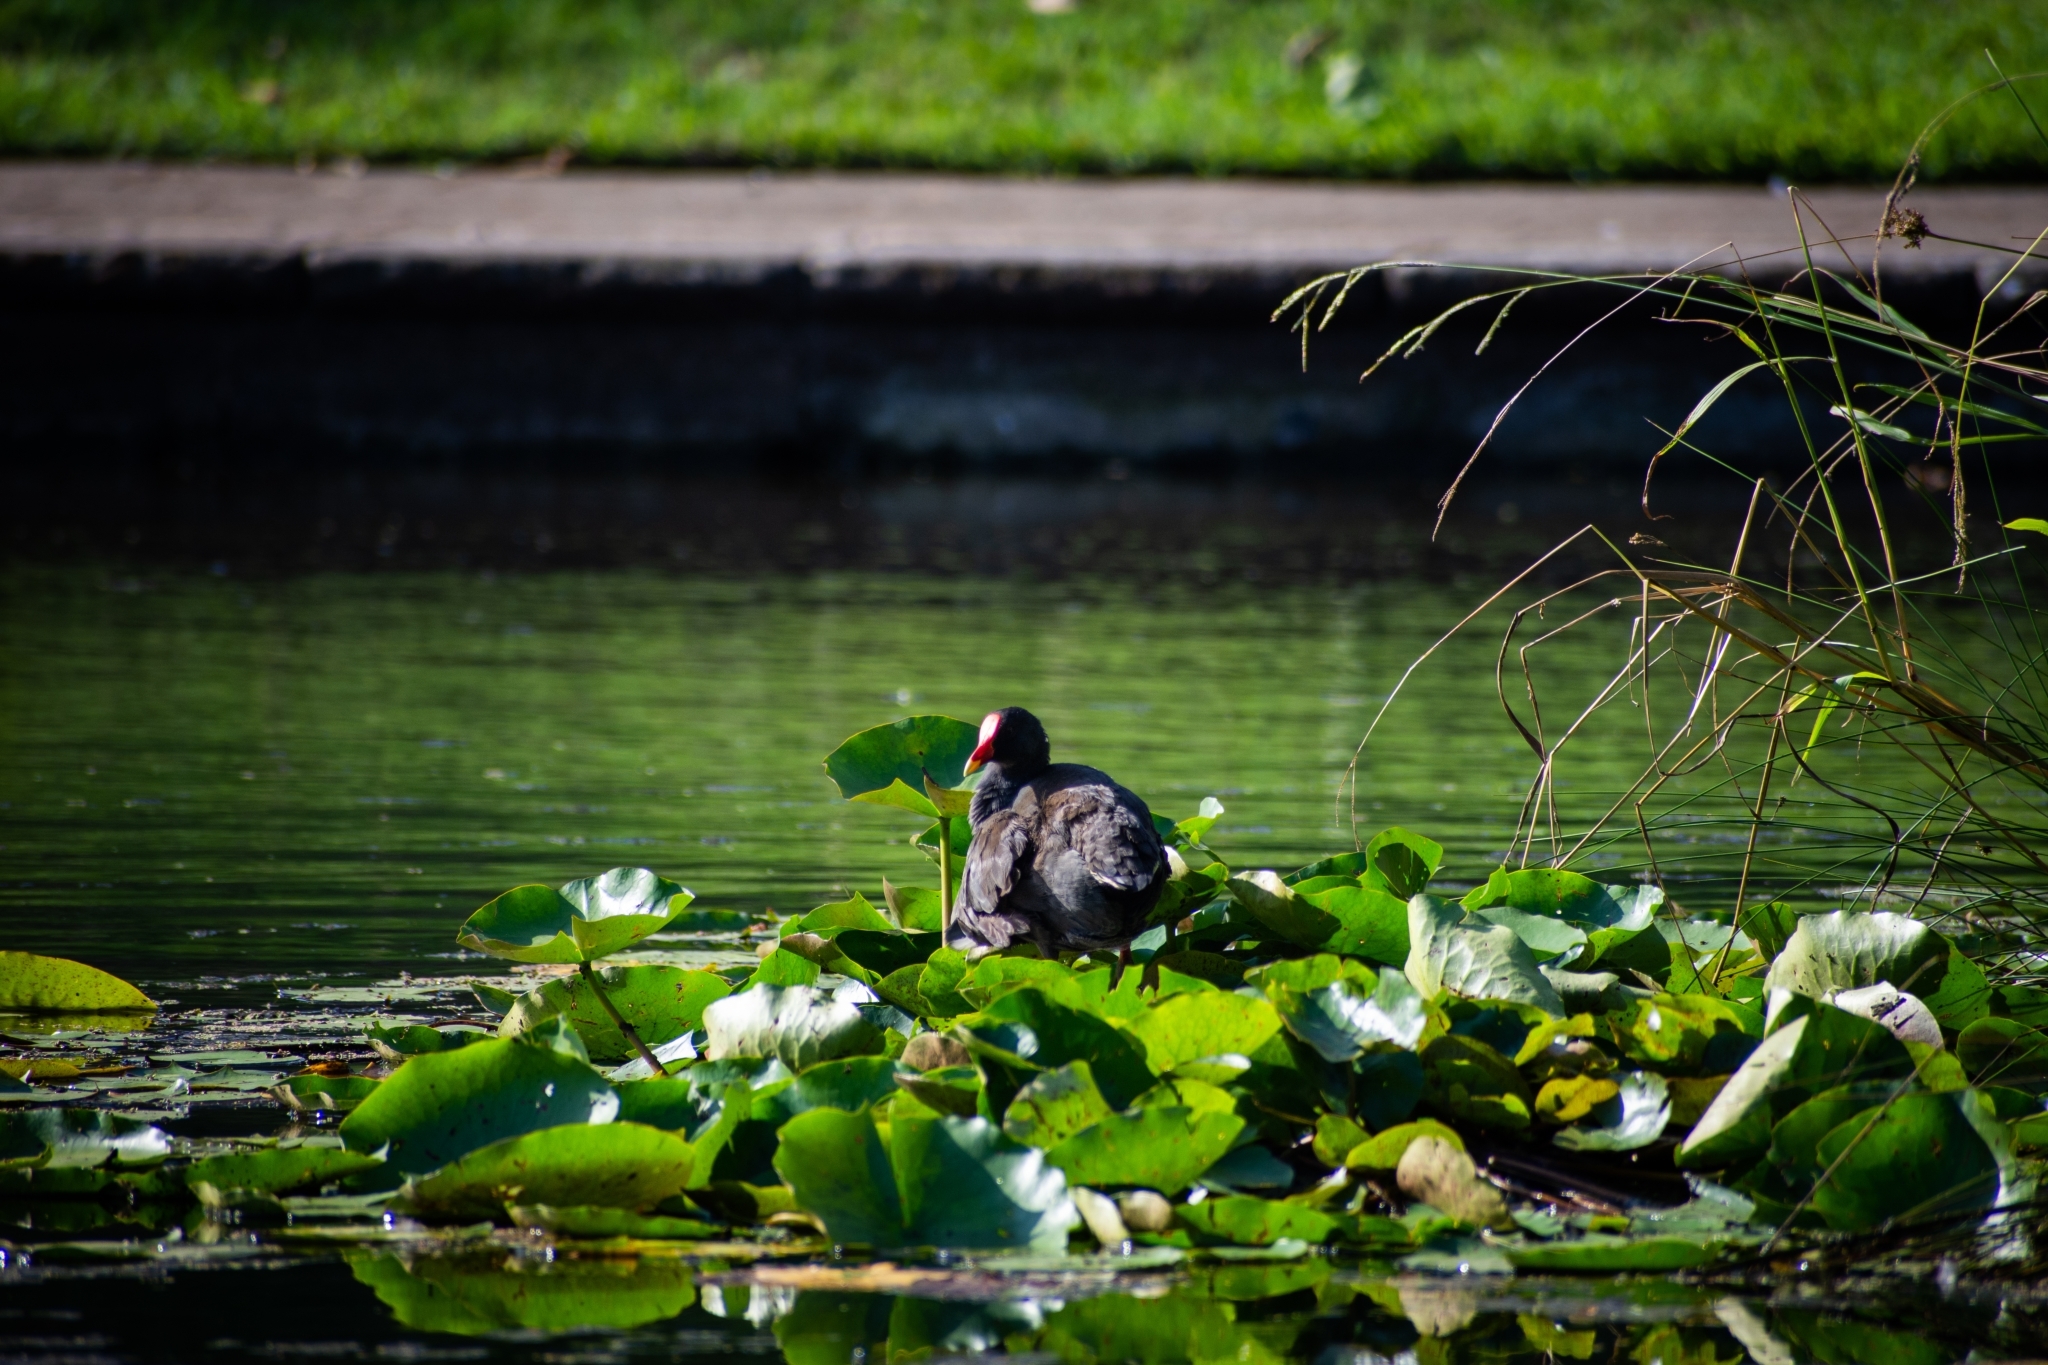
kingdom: Animalia
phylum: Chordata
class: Aves
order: Gruiformes
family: Rallidae
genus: Gallinula
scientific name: Gallinula tenebrosa
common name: Dusky moorhen
